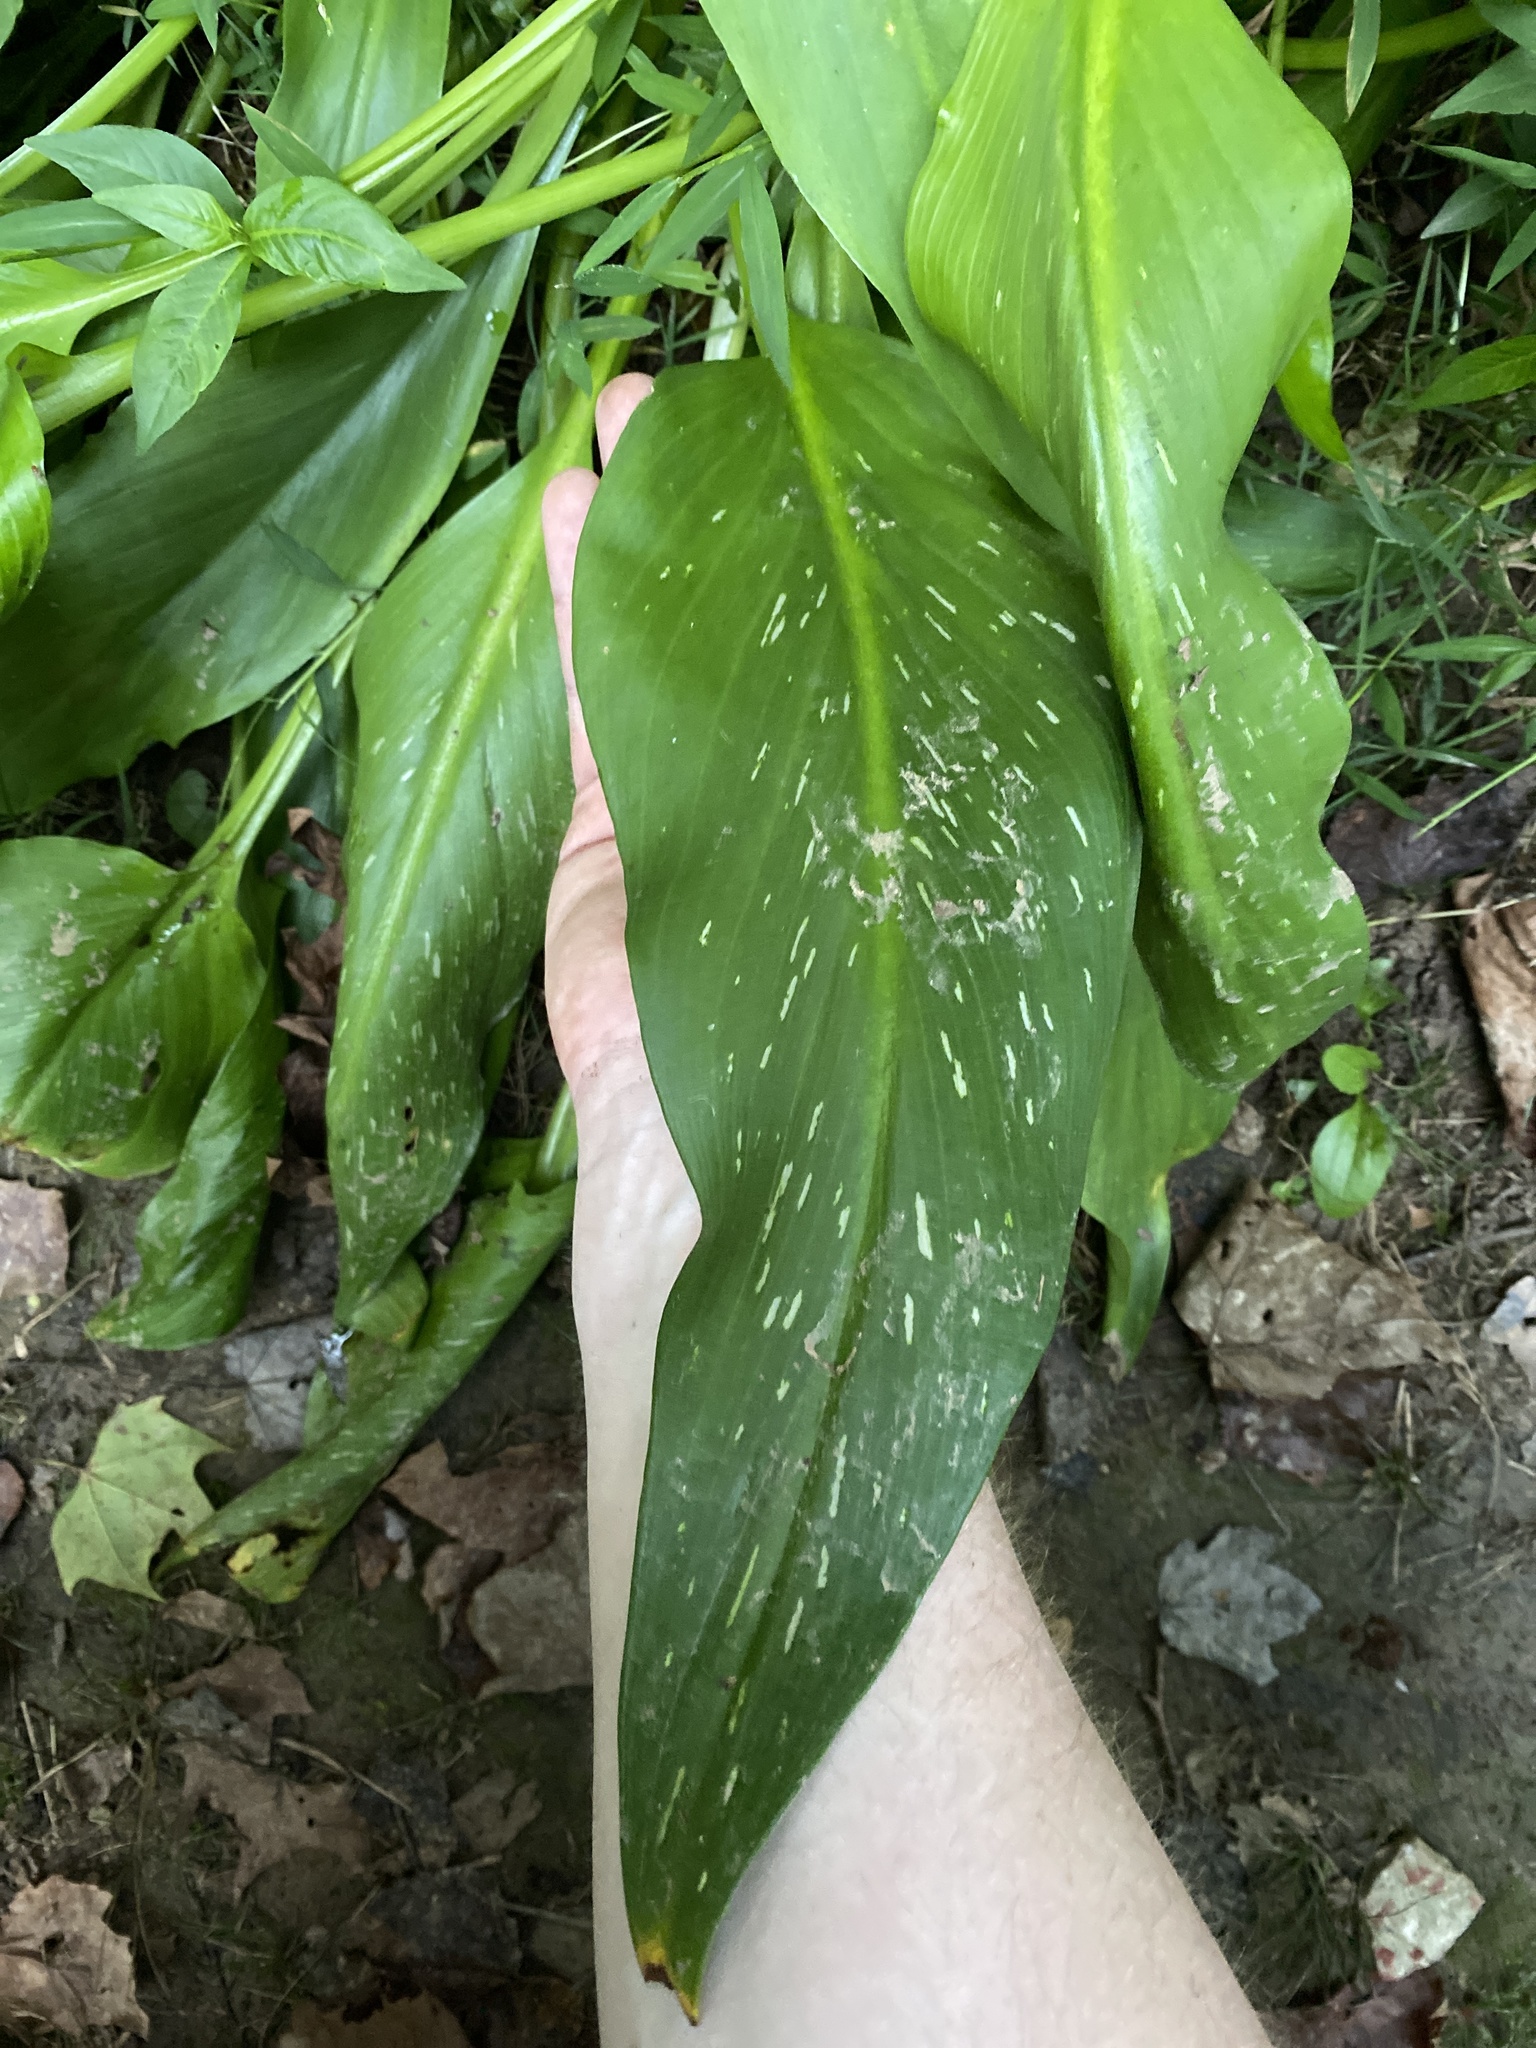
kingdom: Plantae
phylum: Tracheophyta
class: Liliopsida
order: Alismatales
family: Araceae
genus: Zantedeschia
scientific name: Zantedeschia aethiopica
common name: Altar-lily
